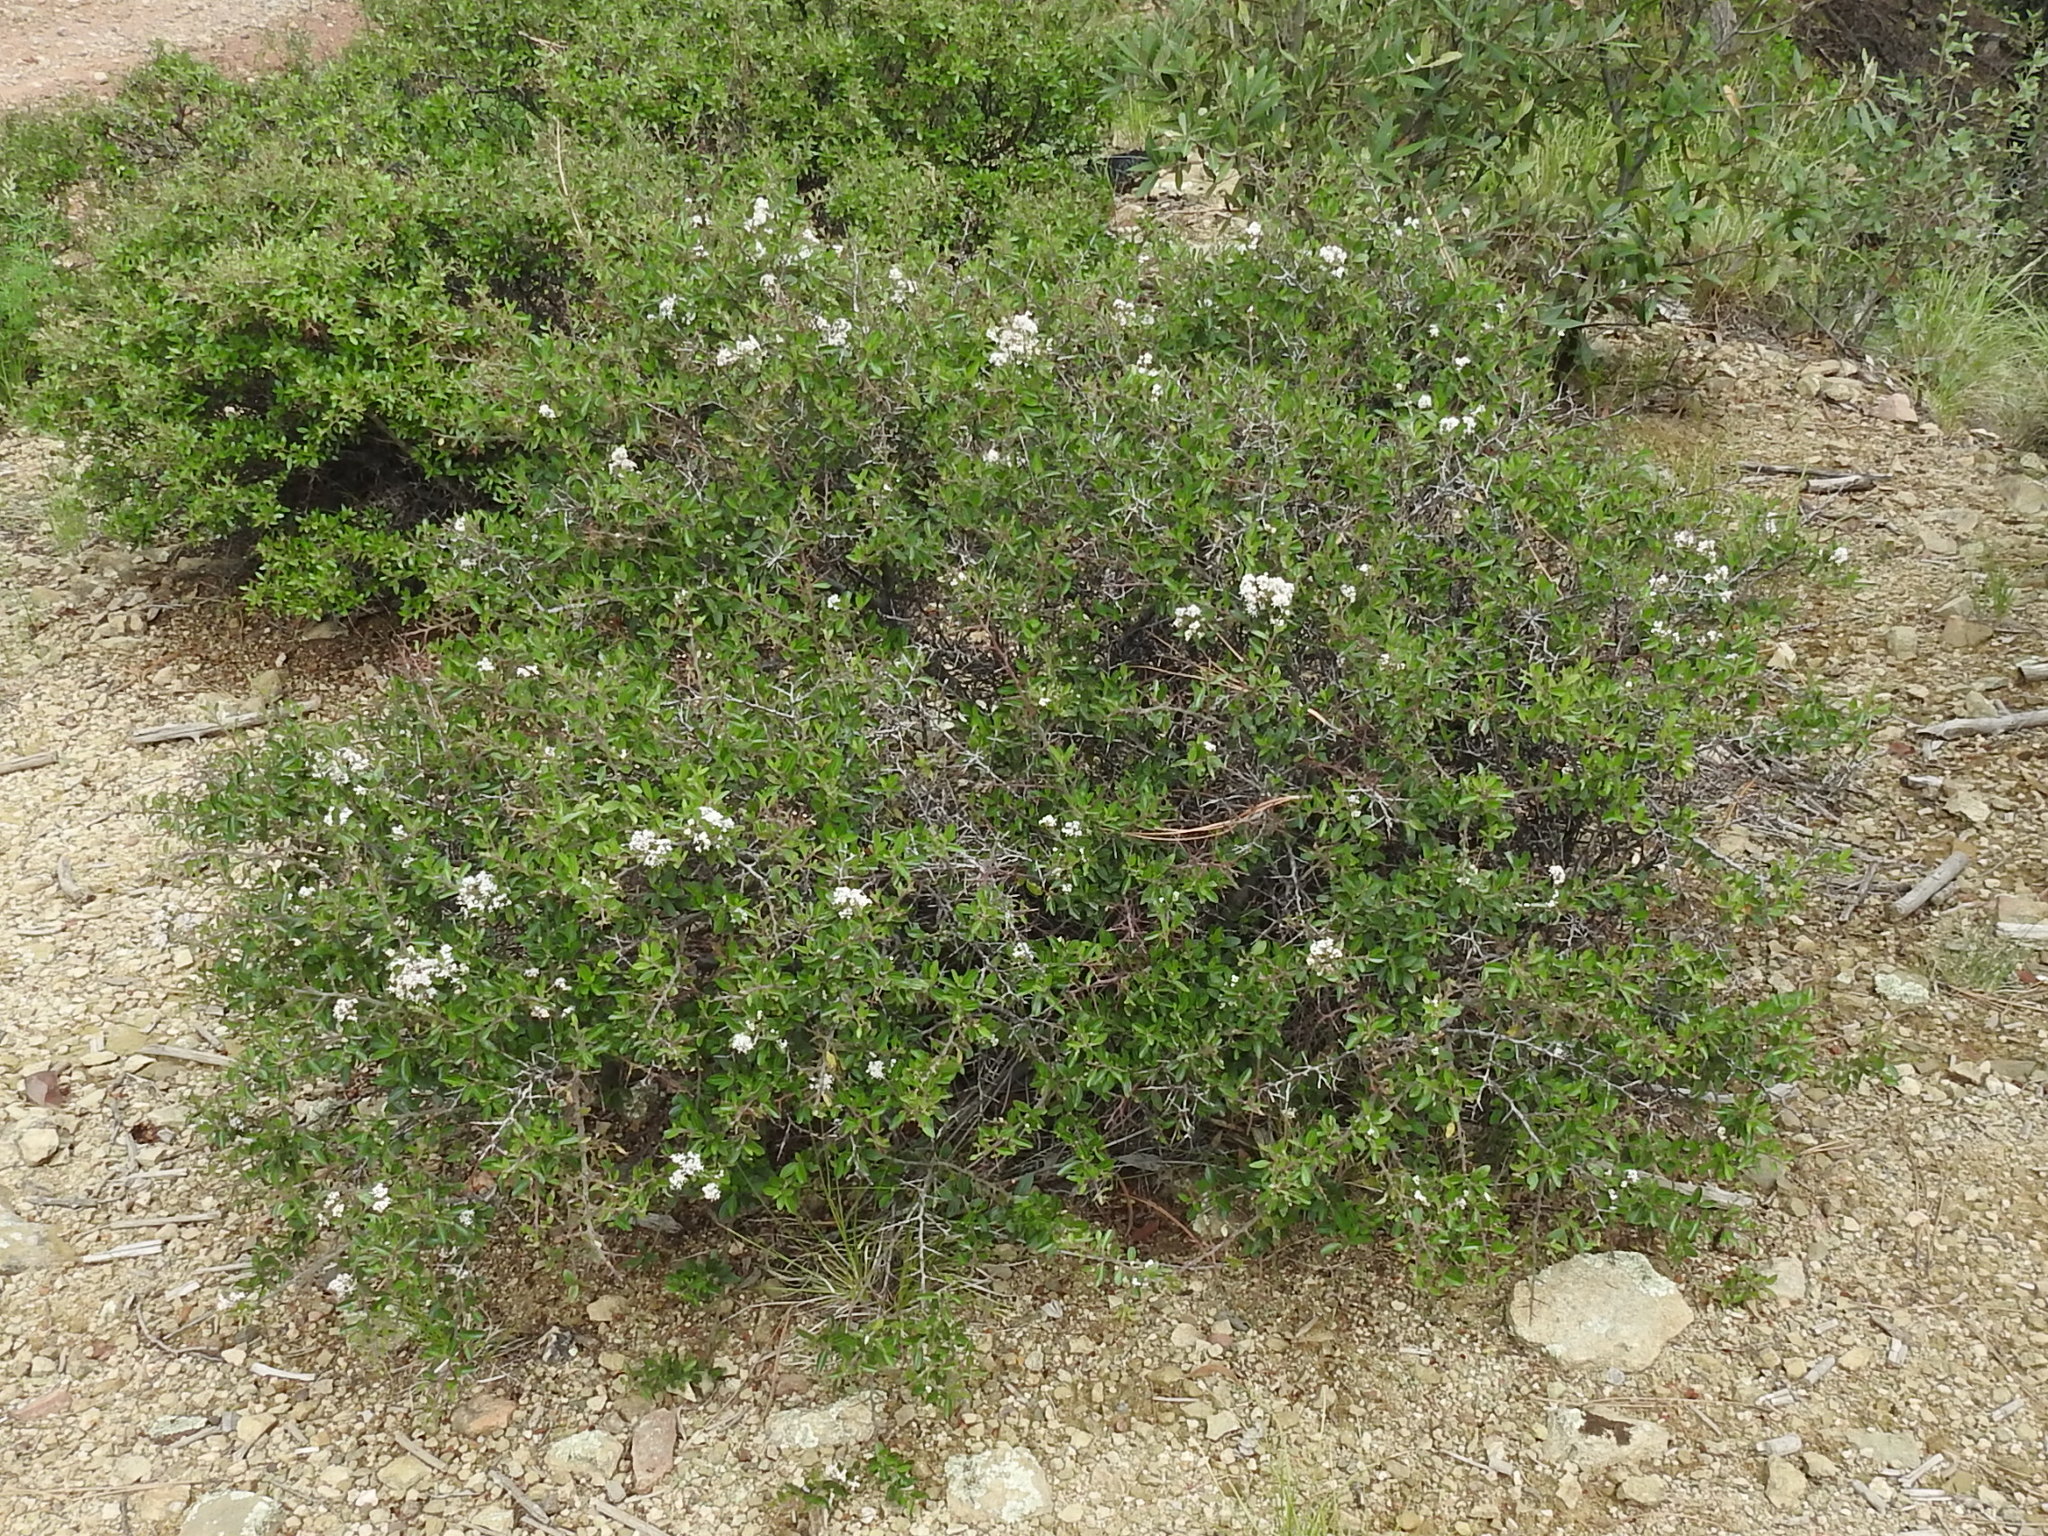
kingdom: Plantae
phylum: Tracheophyta
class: Magnoliopsida
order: Rosales
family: Rhamnaceae
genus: Ceanothus
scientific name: Ceanothus fendleri
